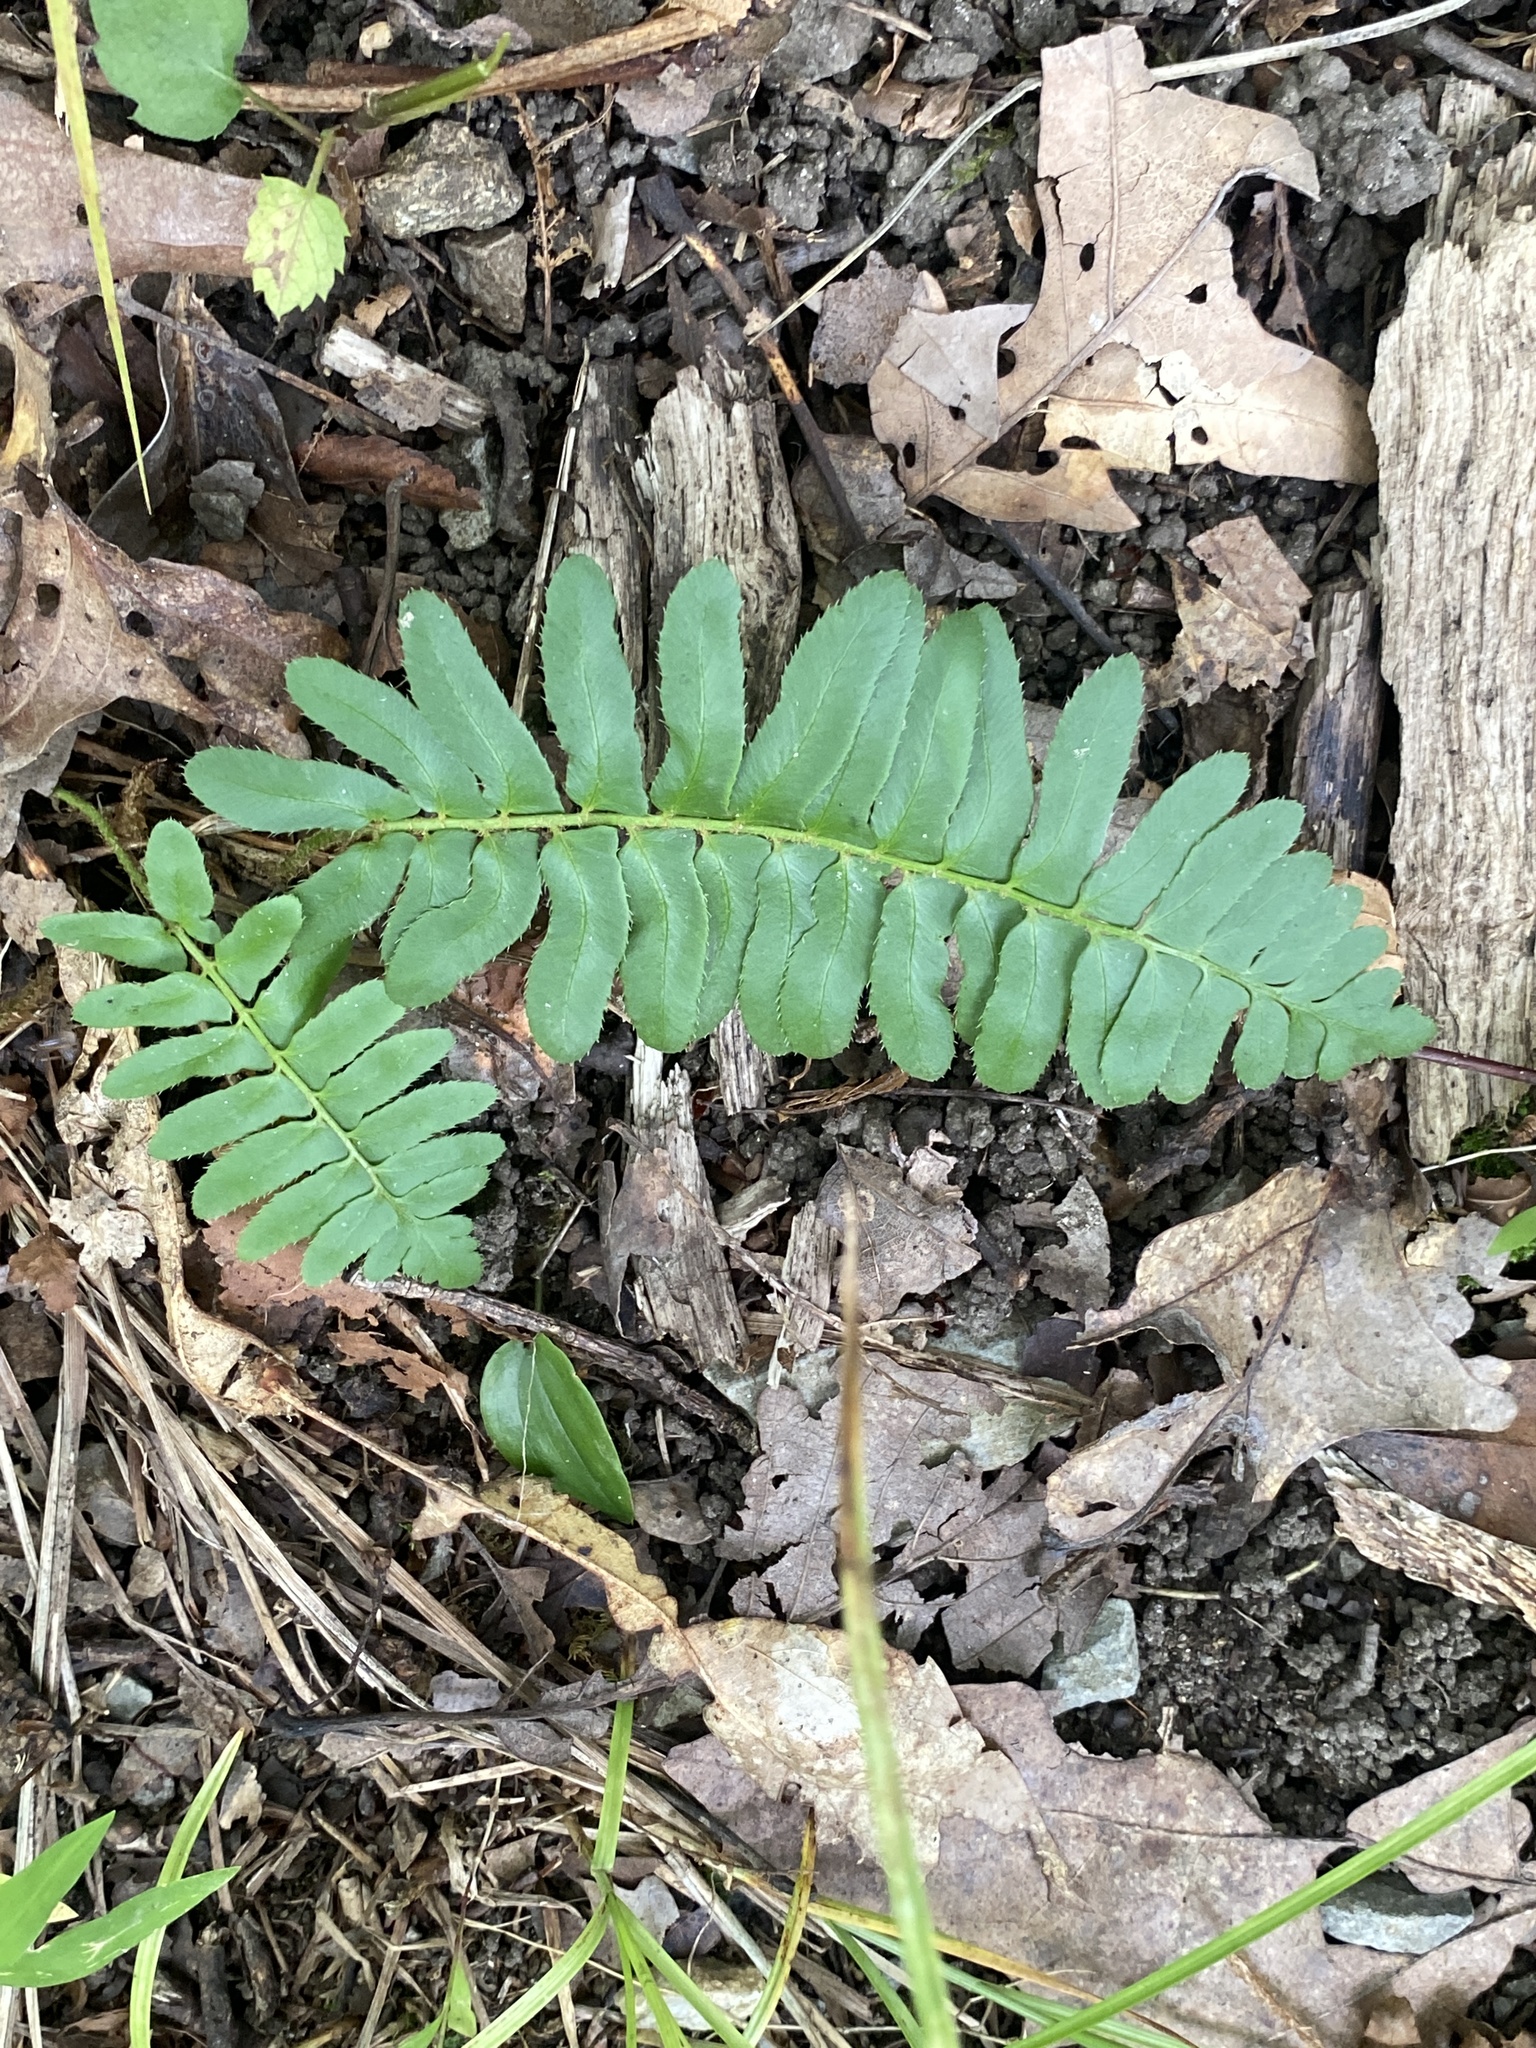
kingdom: Plantae
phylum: Tracheophyta
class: Polypodiopsida
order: Polypodiales
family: Dryopteridaceae
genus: Polystichum
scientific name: Polystichum acrostichoides
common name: Christmas fern
